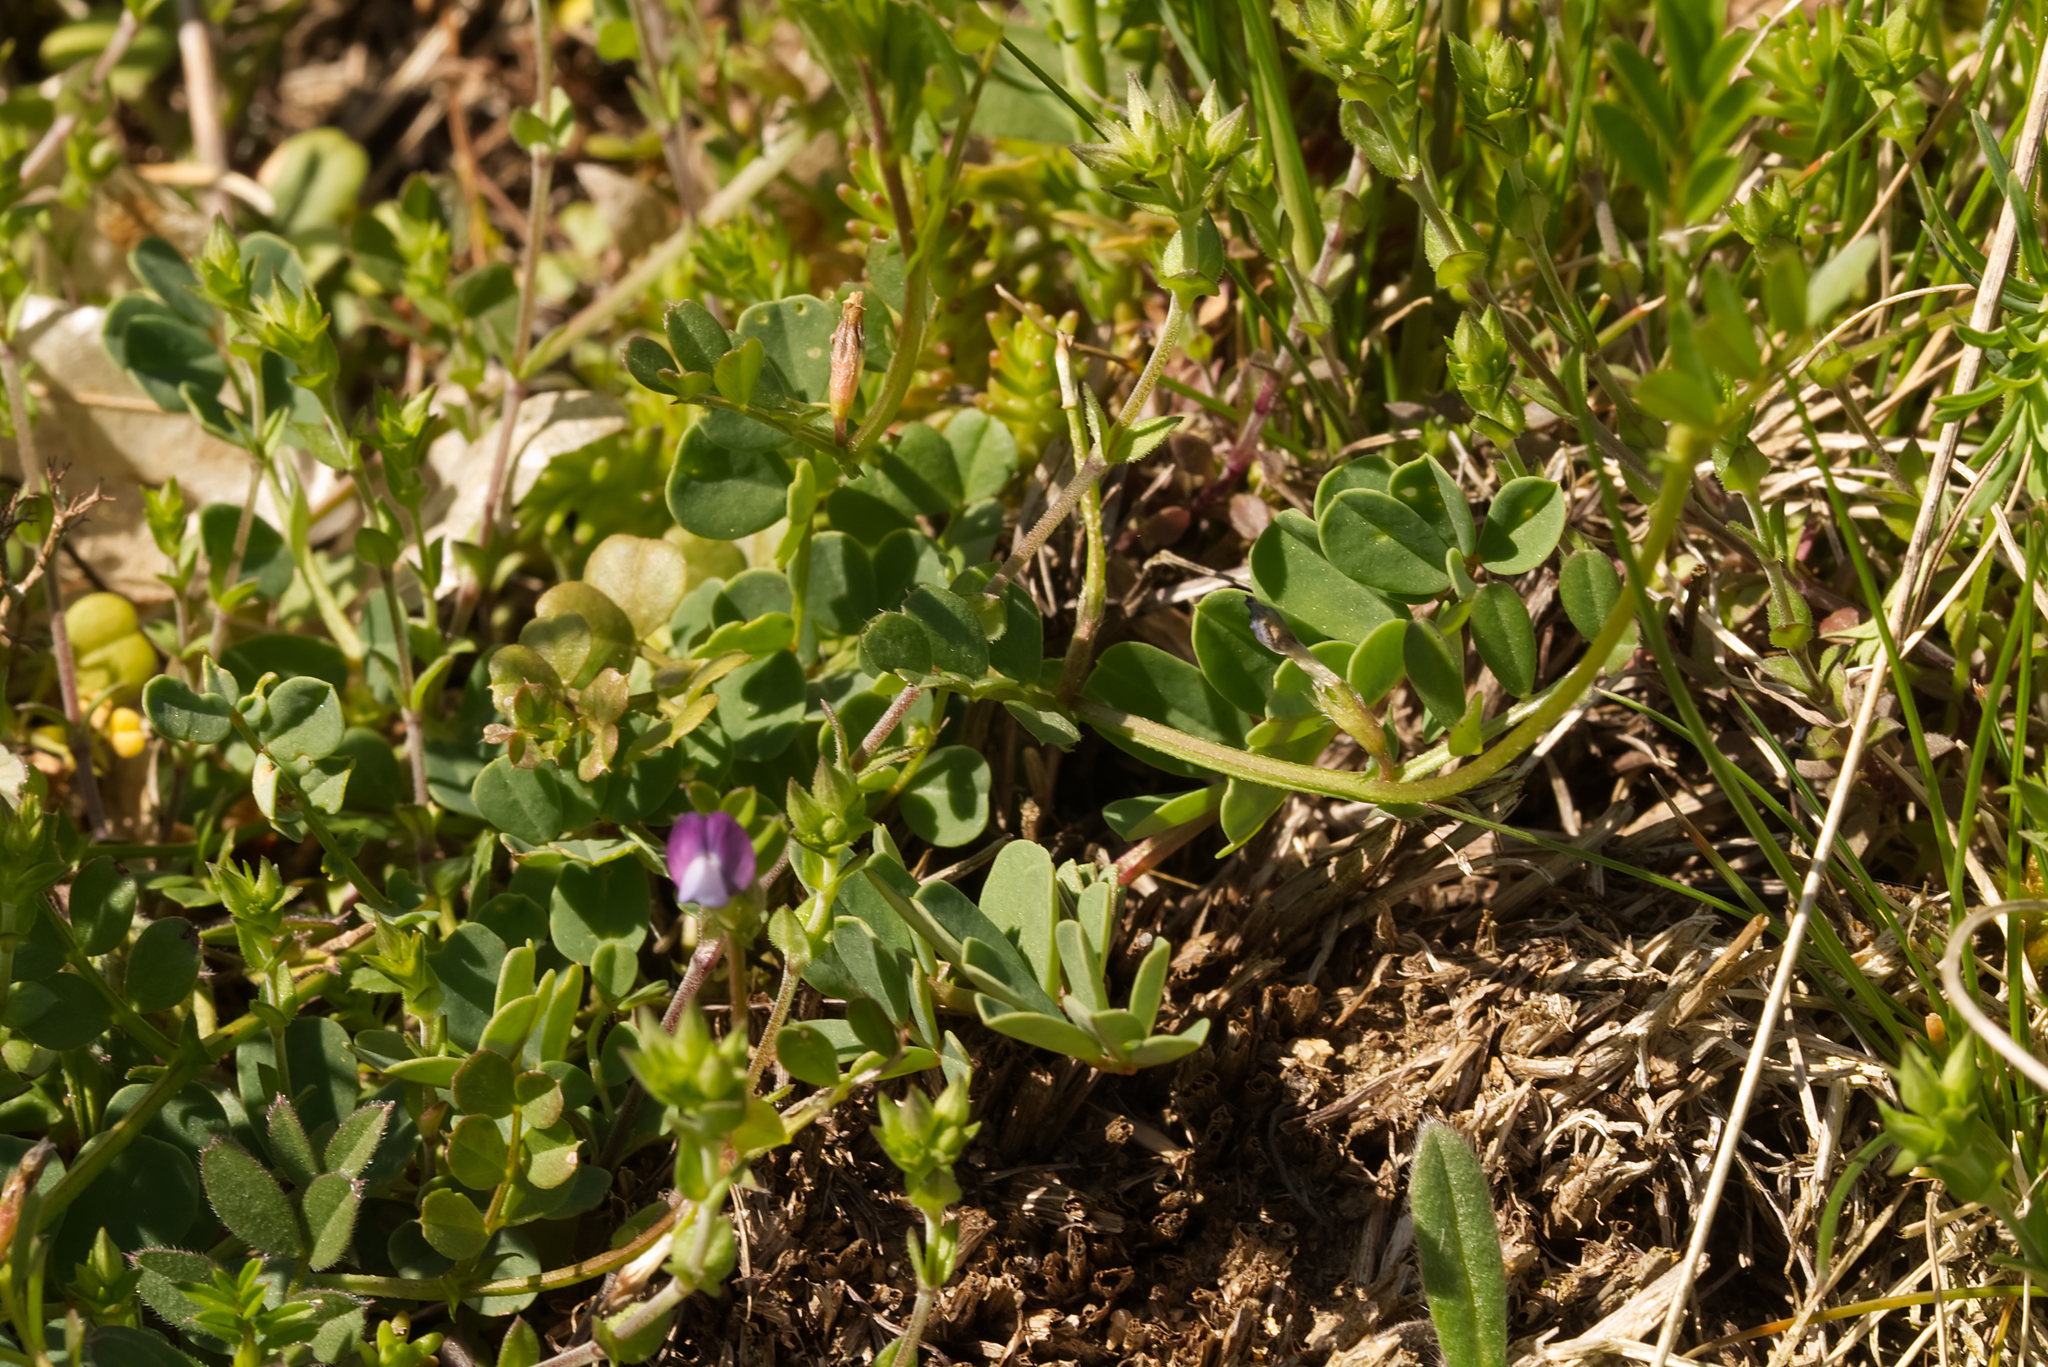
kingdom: Plantae
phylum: Tracheophyta
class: Magnoliopsida
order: Fabales
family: Fabaceae
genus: Vicia
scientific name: Vicia lathyroides
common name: Spring vetch
